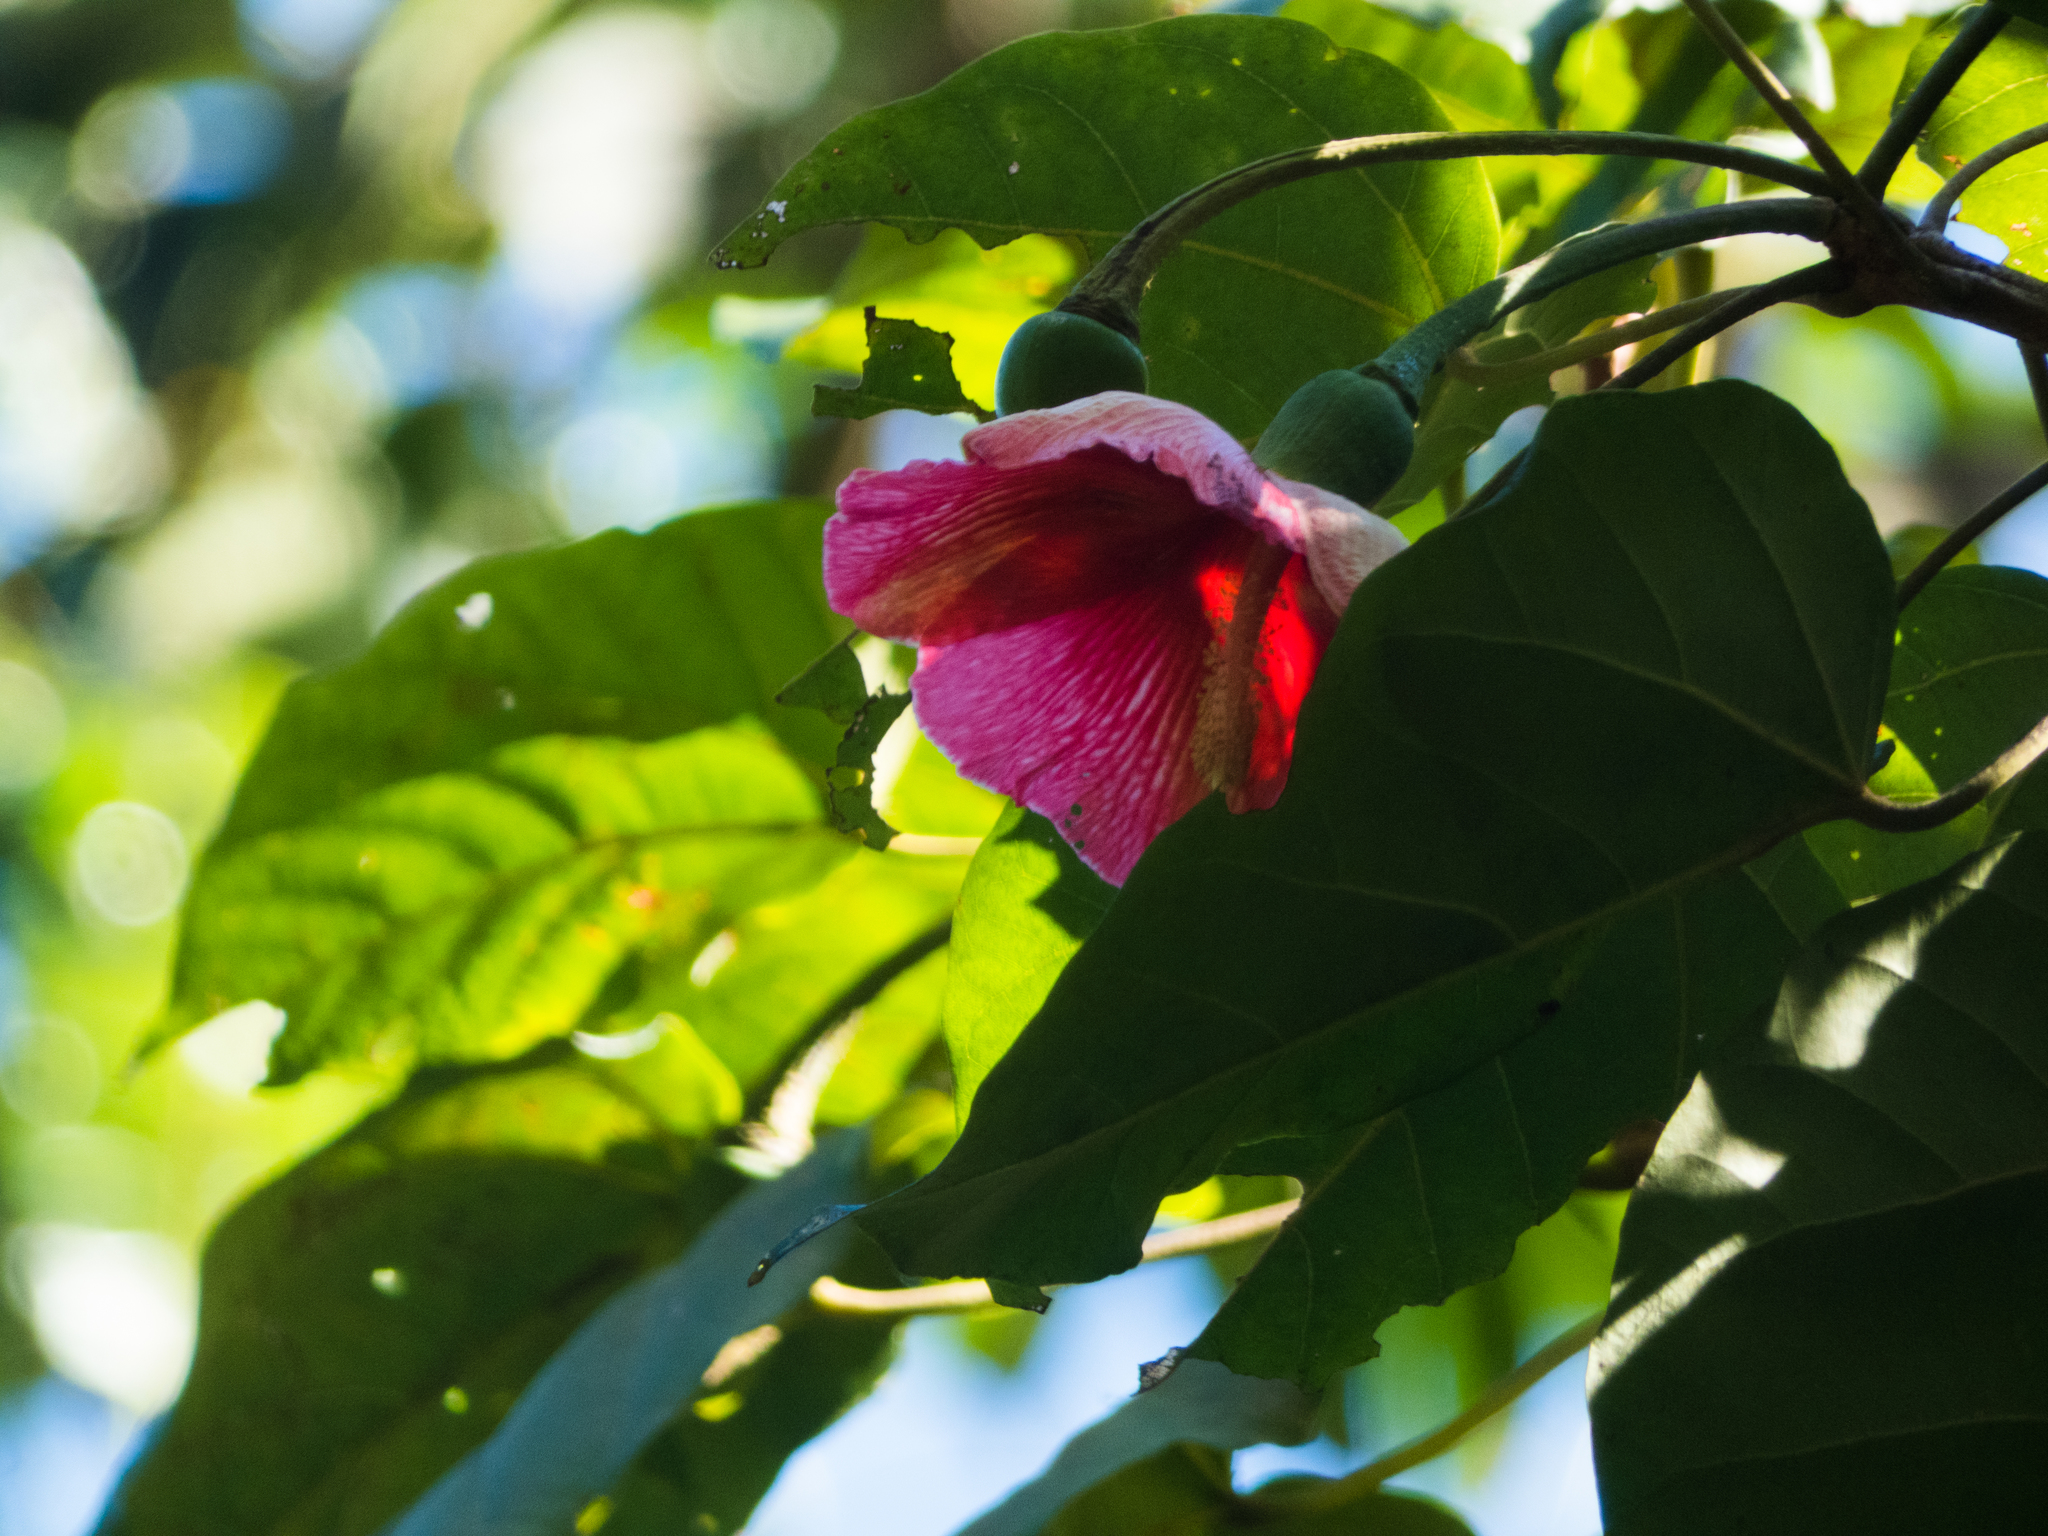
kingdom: Plantae
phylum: Tracheophyta
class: Magnoliopsida
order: Malvales
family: Malvaceae
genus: Thespesia
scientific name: Thespesia grandiflora
